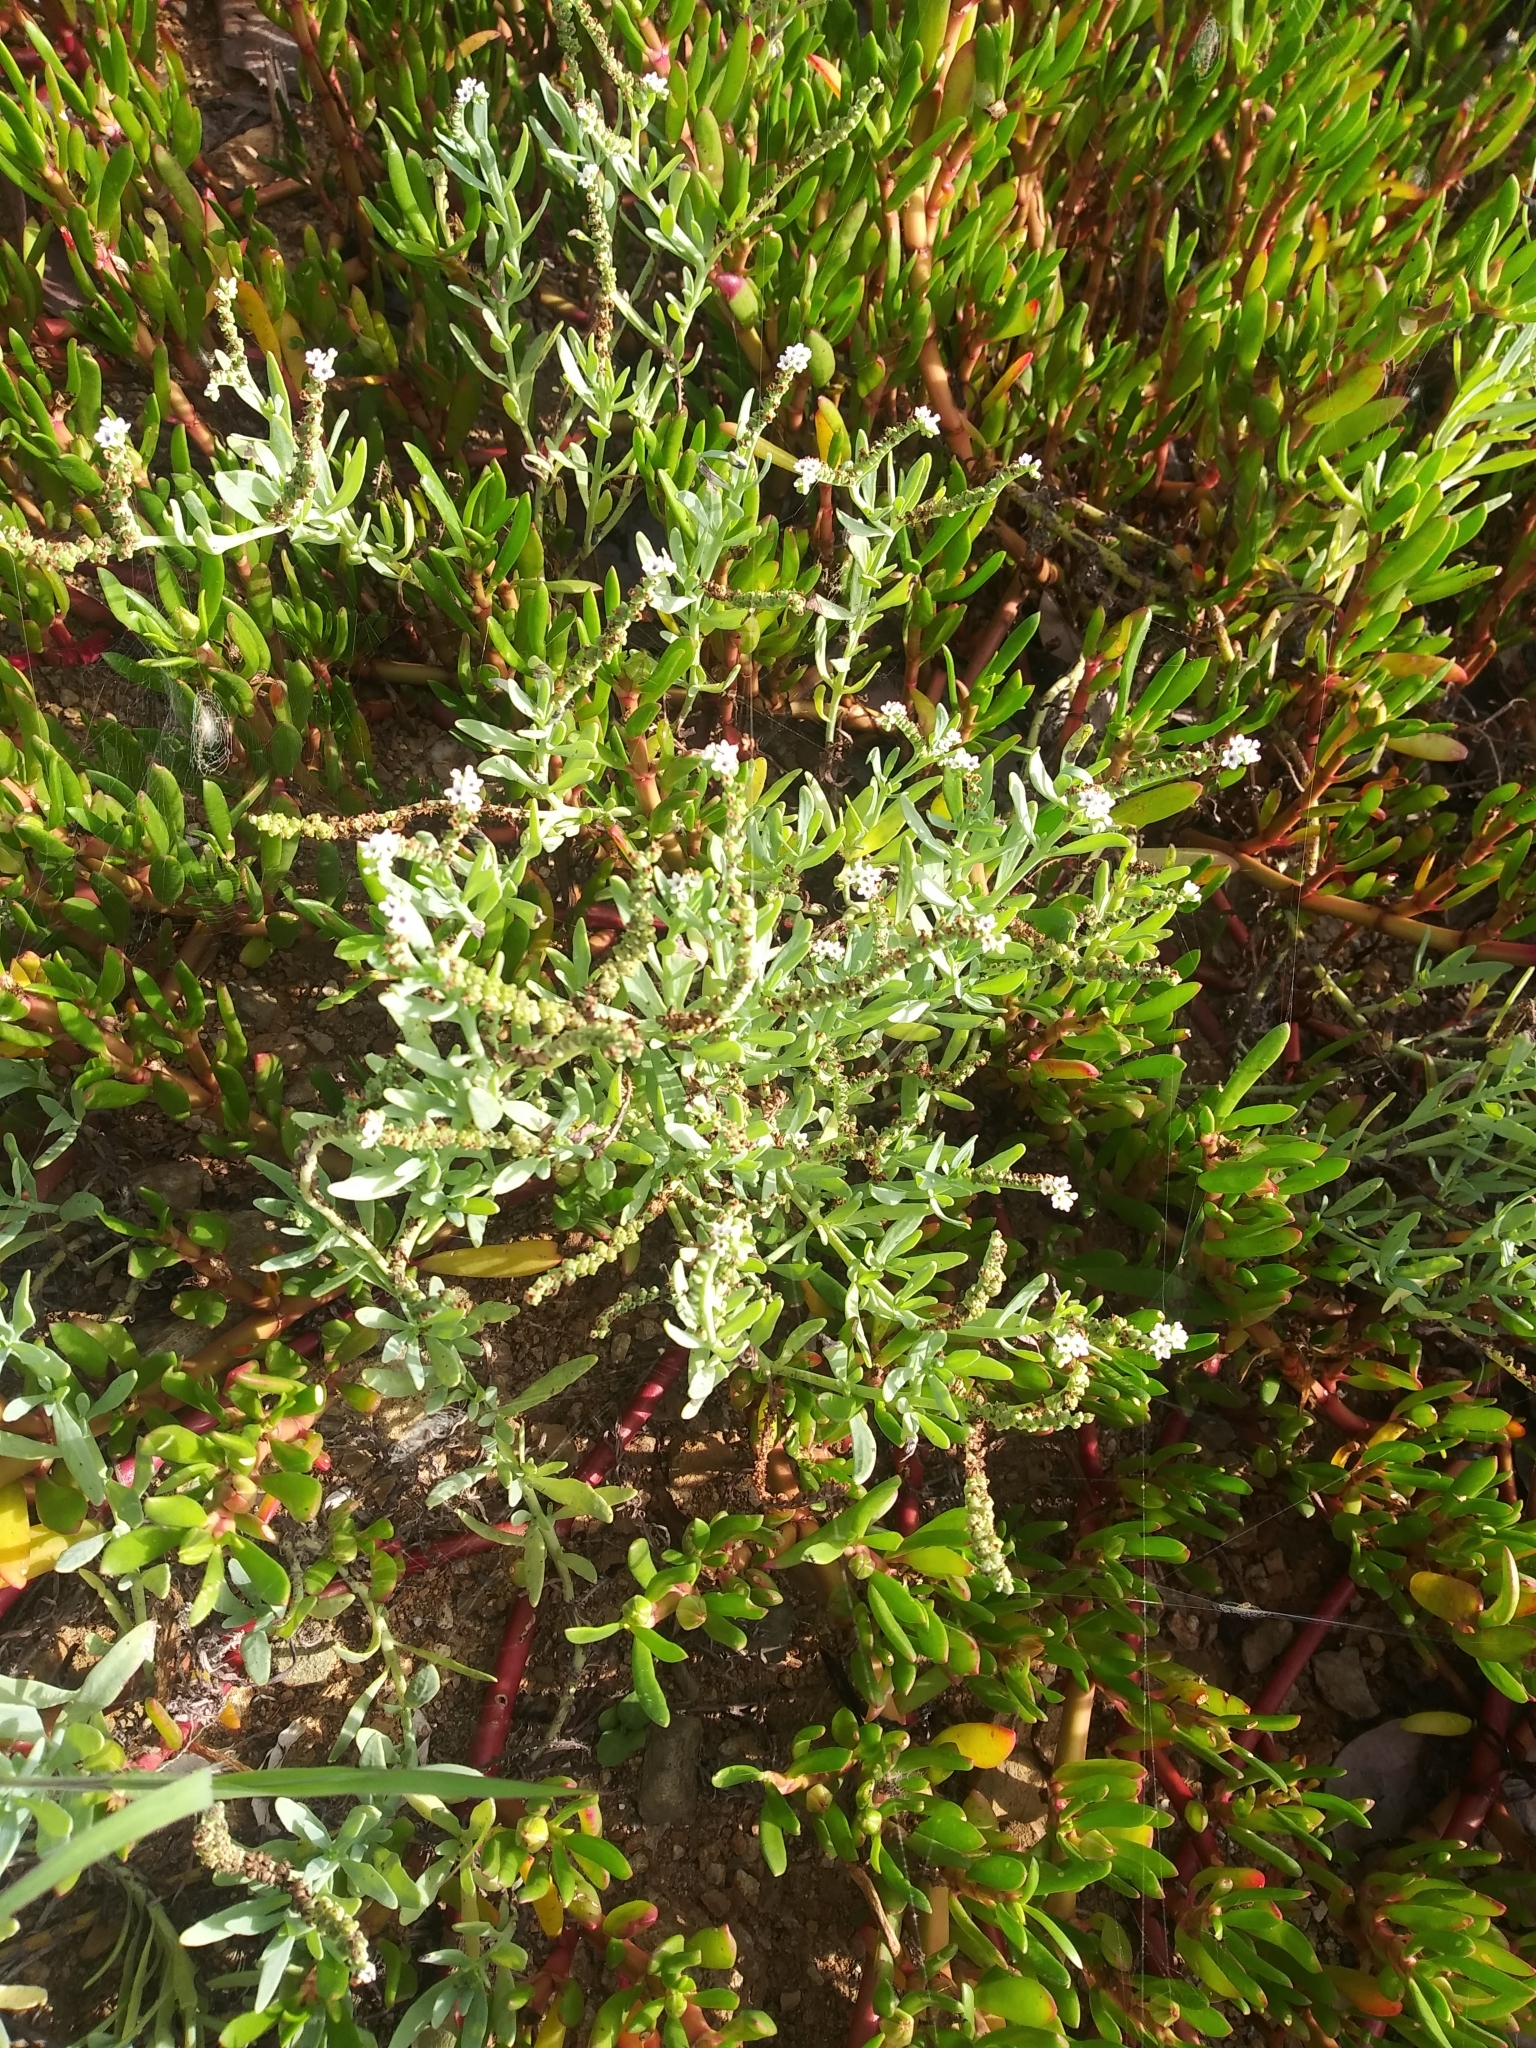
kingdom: Plantae
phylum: Tracheophyta
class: Magnoliopsida
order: Boraginales
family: Heliotropiaceae
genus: Heliotropium
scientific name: Heliotropium curassavicum
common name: Seaside heliotrope
